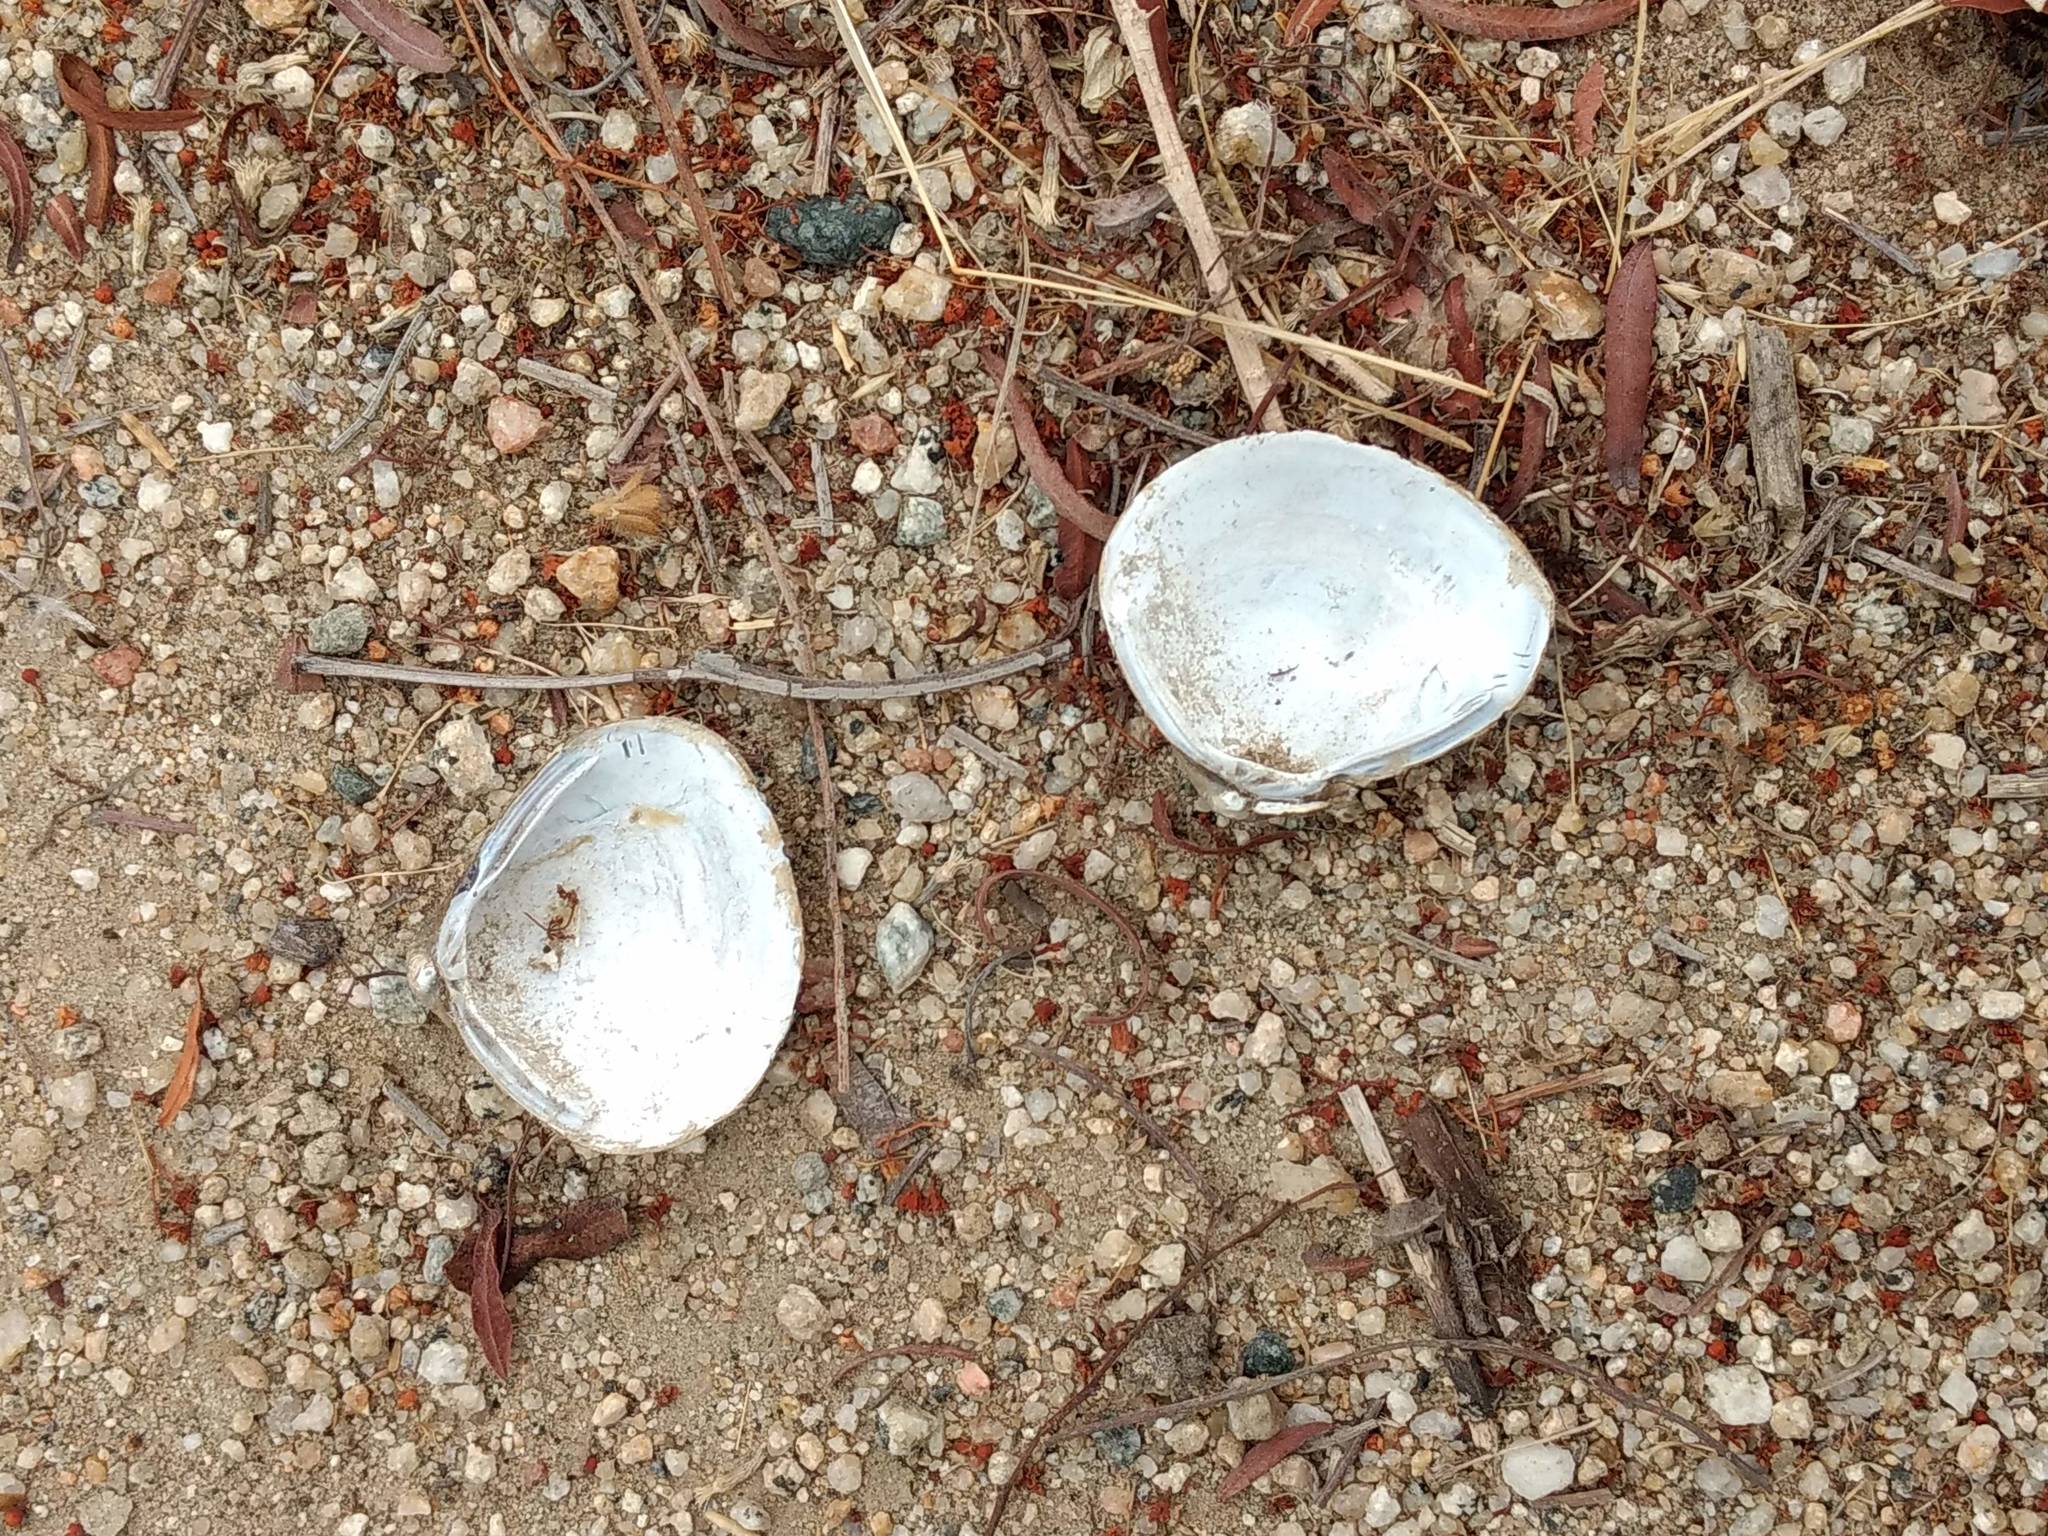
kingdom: Animalia
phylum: Mollusca
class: Bivalvia
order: Venerida
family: Cyrenidae
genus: Corbicula
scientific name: Corbicula fluminea
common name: Asian clam
